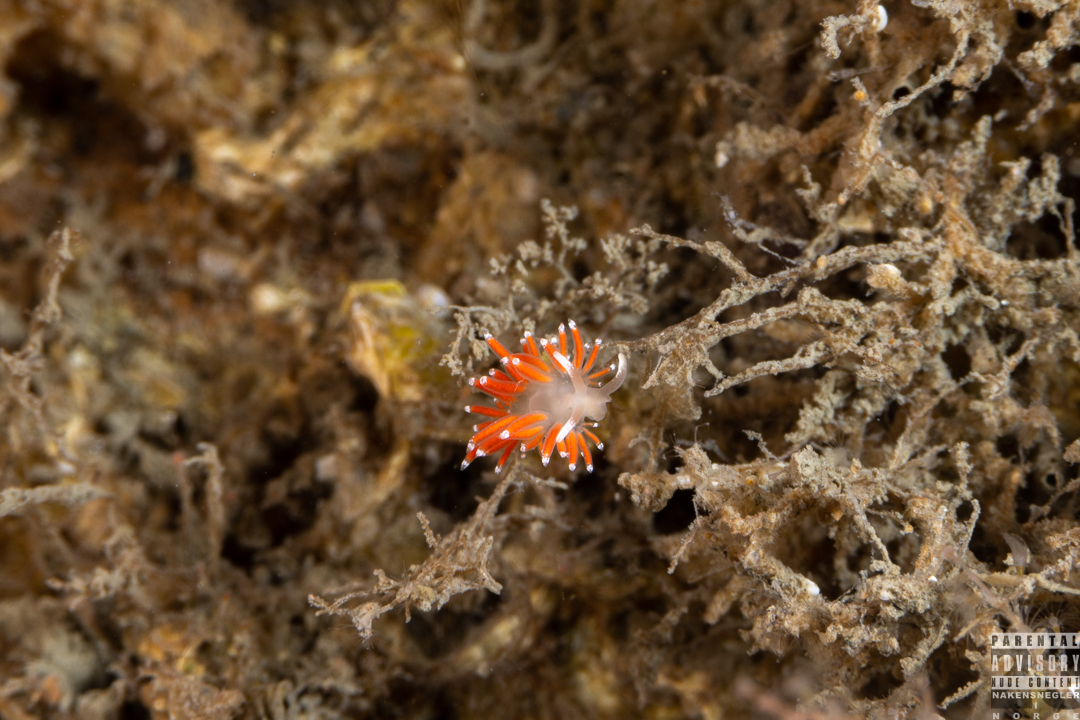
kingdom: Animalia
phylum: Mollusca
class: Gastropoda
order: Nudibranchia
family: Coryphellidae
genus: Coryphella
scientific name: Coryphella gracilis
